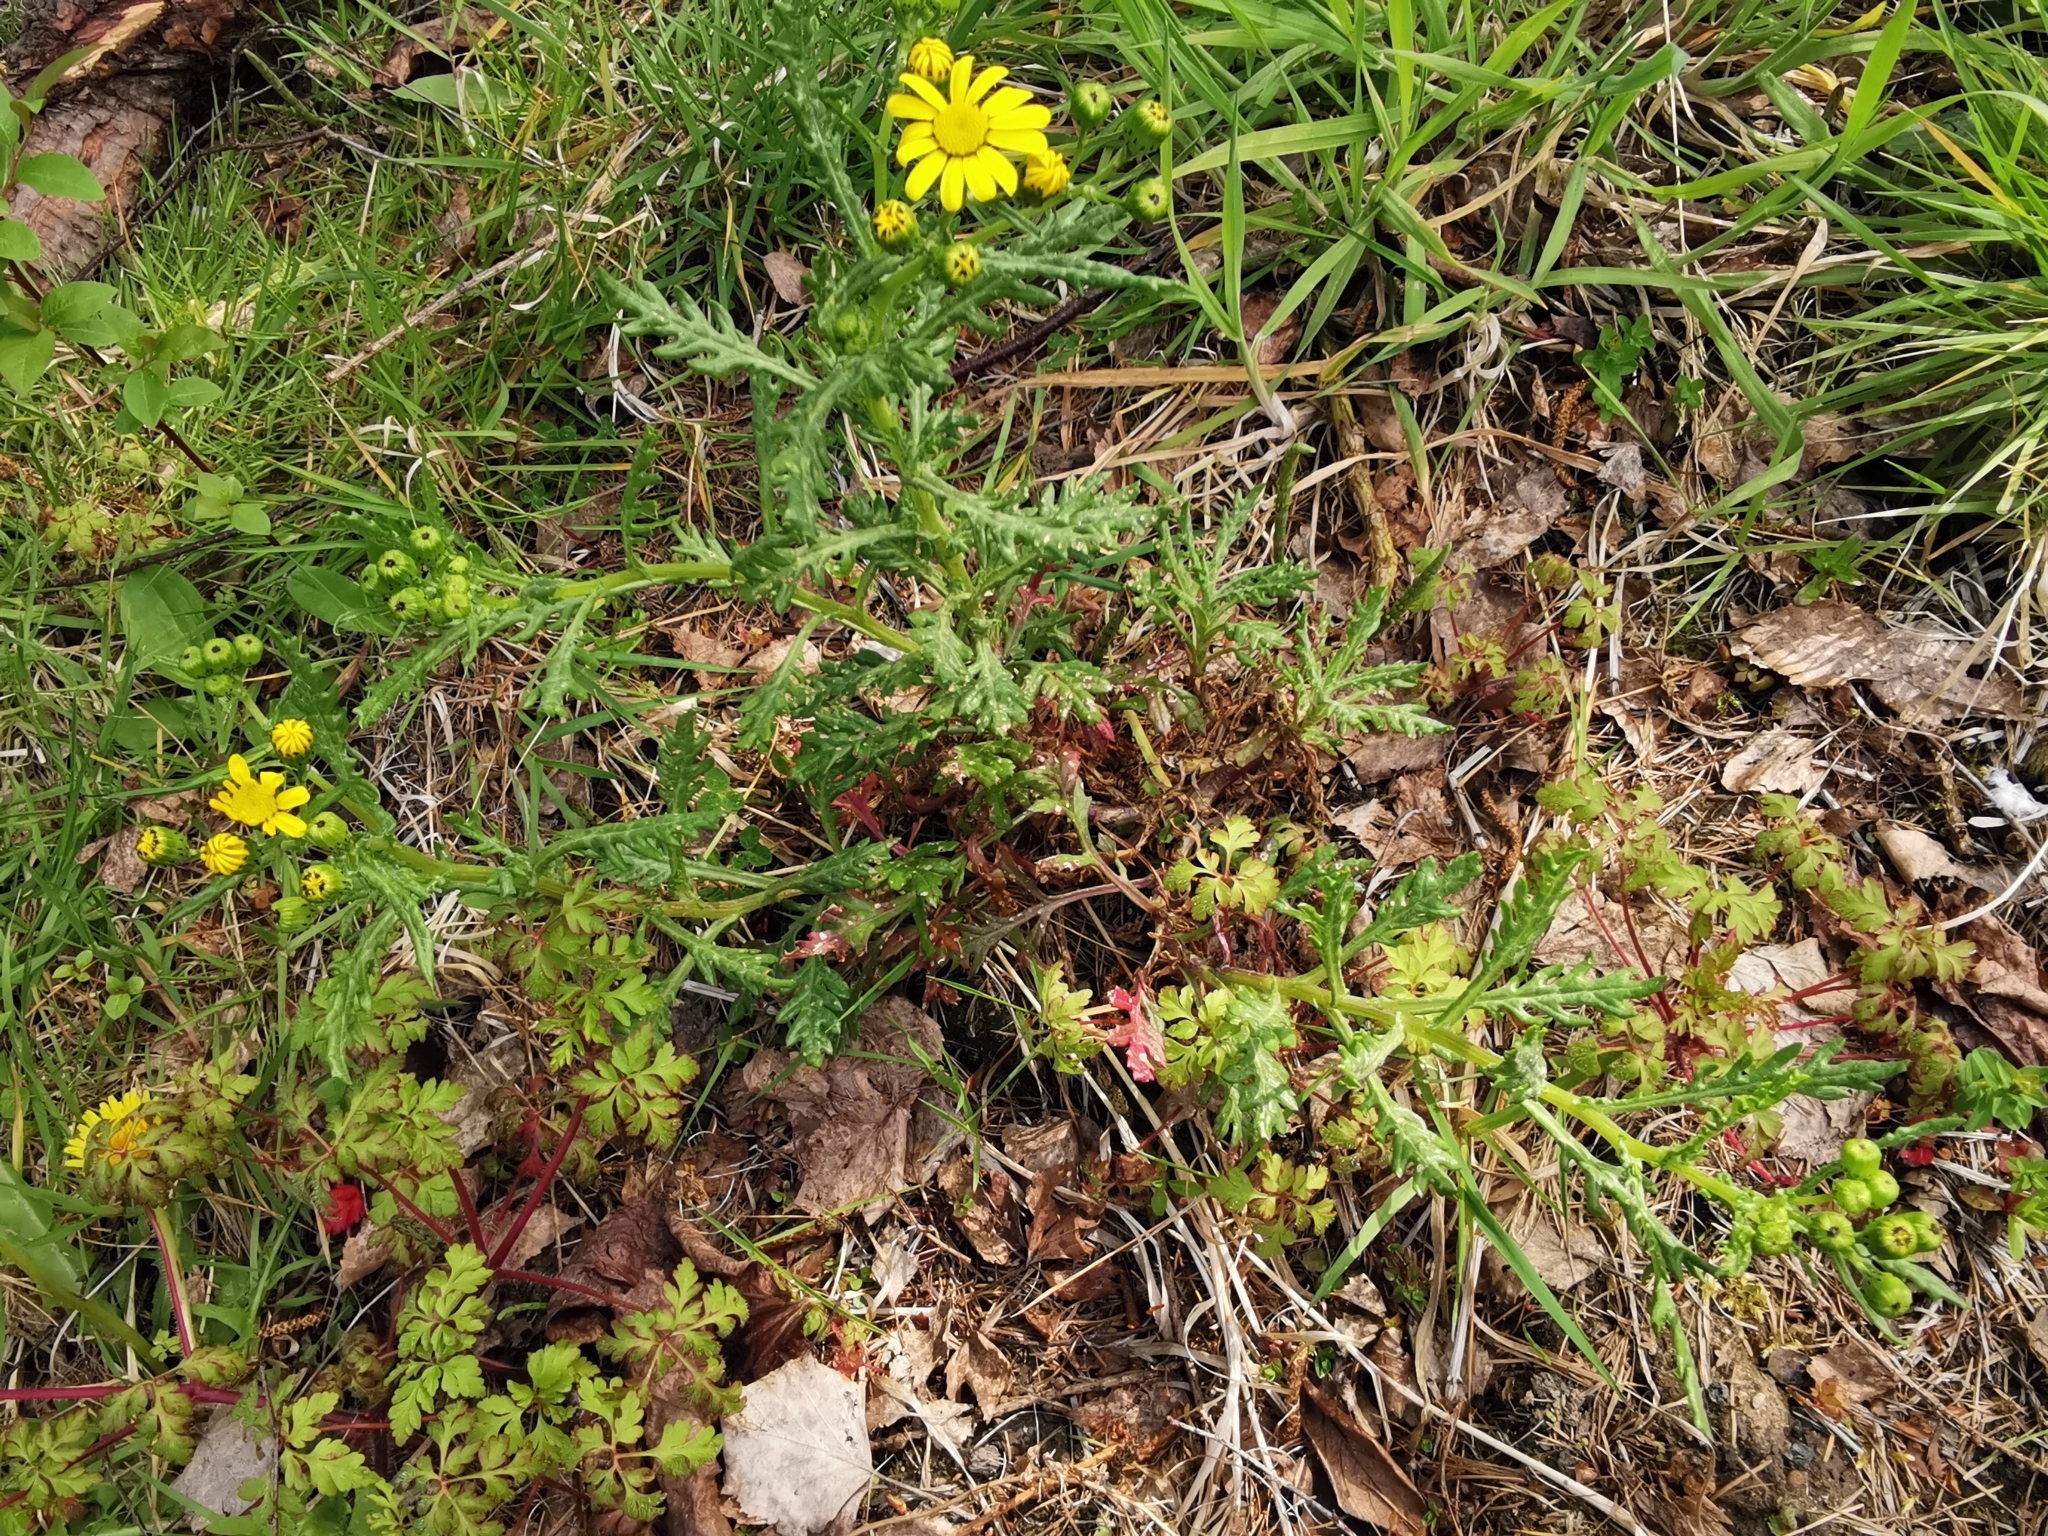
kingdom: Plantae
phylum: Tracheophyta
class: Magnoliopsida
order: Asterales
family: Asteraceae
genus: Senecio
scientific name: Senecio squalidus
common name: Oxford ragwort
